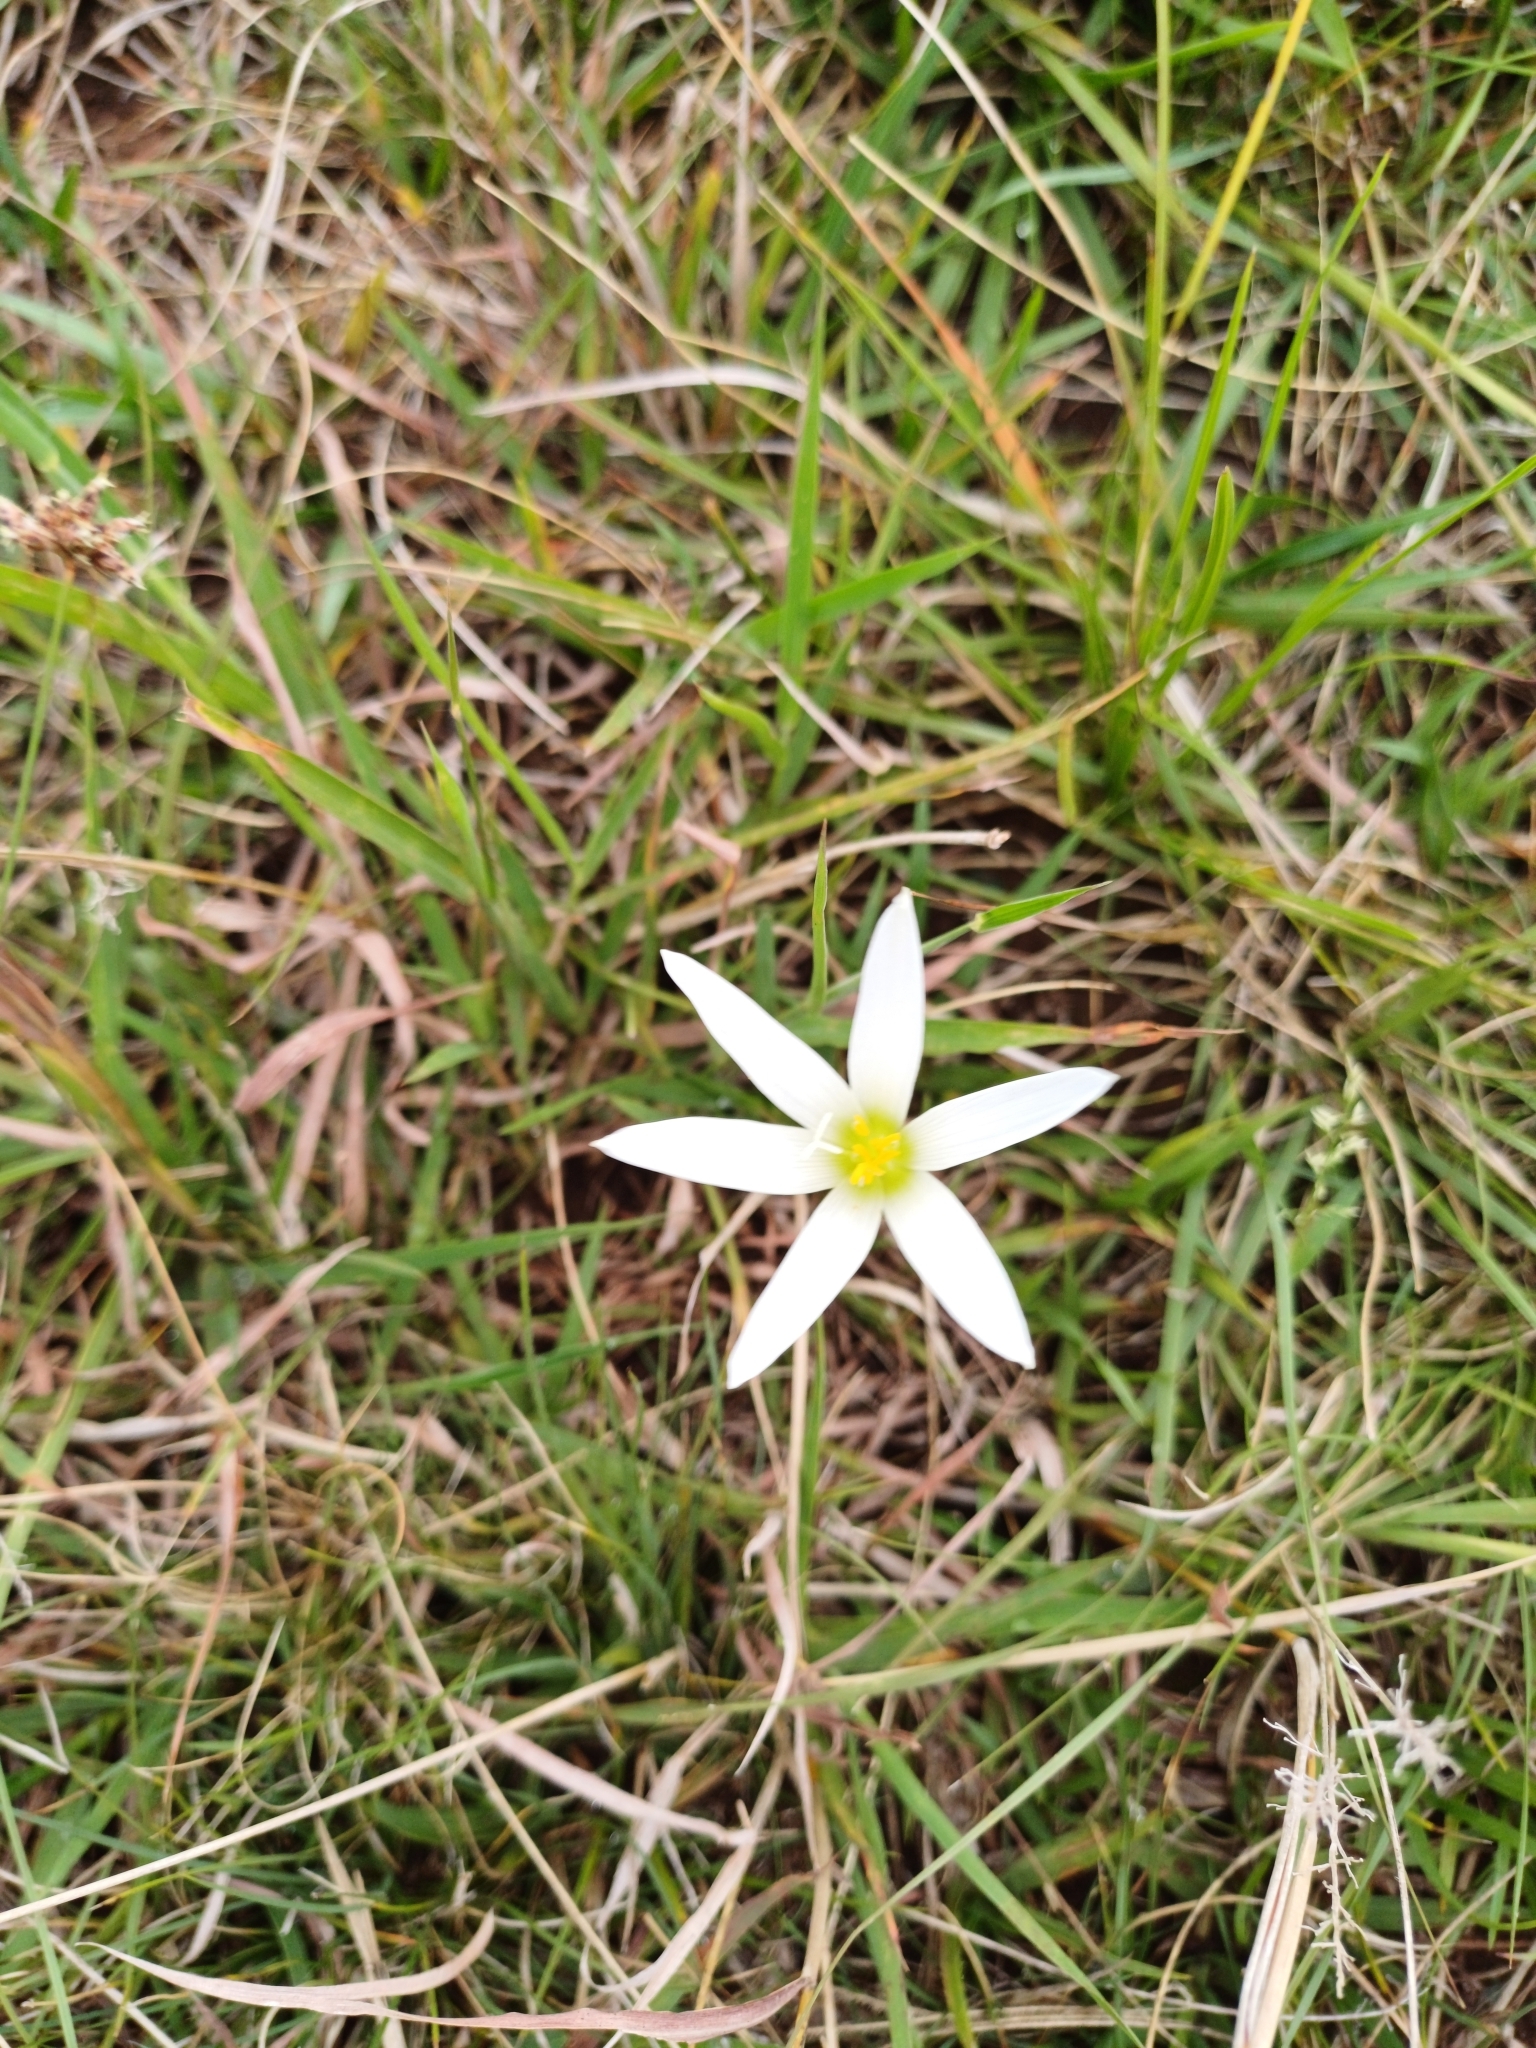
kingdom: Plantae
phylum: Tracheophyta
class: Liliopsida
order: Asparagales
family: Amaryllidaceae
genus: Zephyranthes
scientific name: Zephyranthes mesochloa
